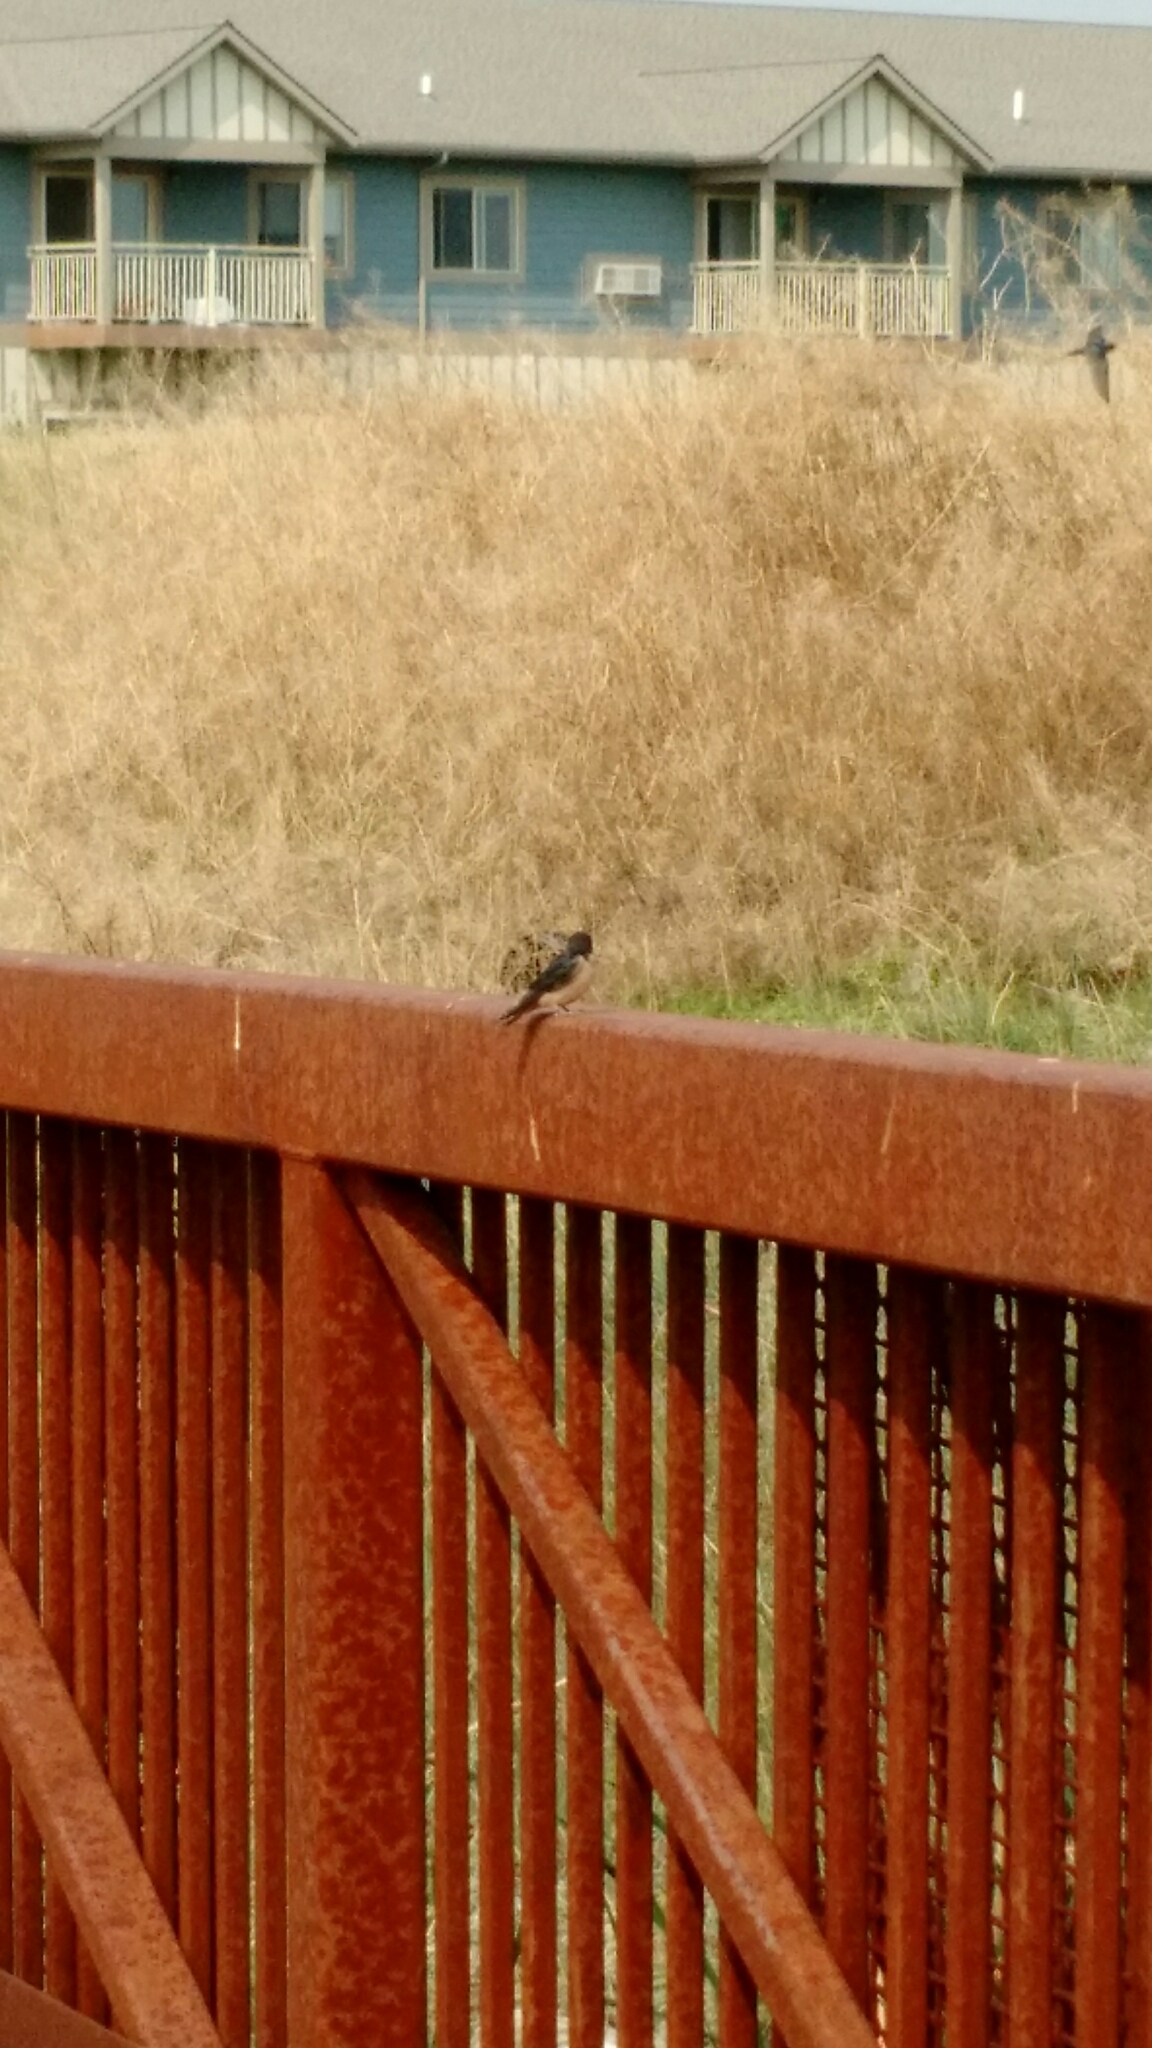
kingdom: Animalia
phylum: Chordata
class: Aves
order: Passeriformes
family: Hirundinidae
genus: Hirundo
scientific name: Hirundo rustica
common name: Barn swallow
